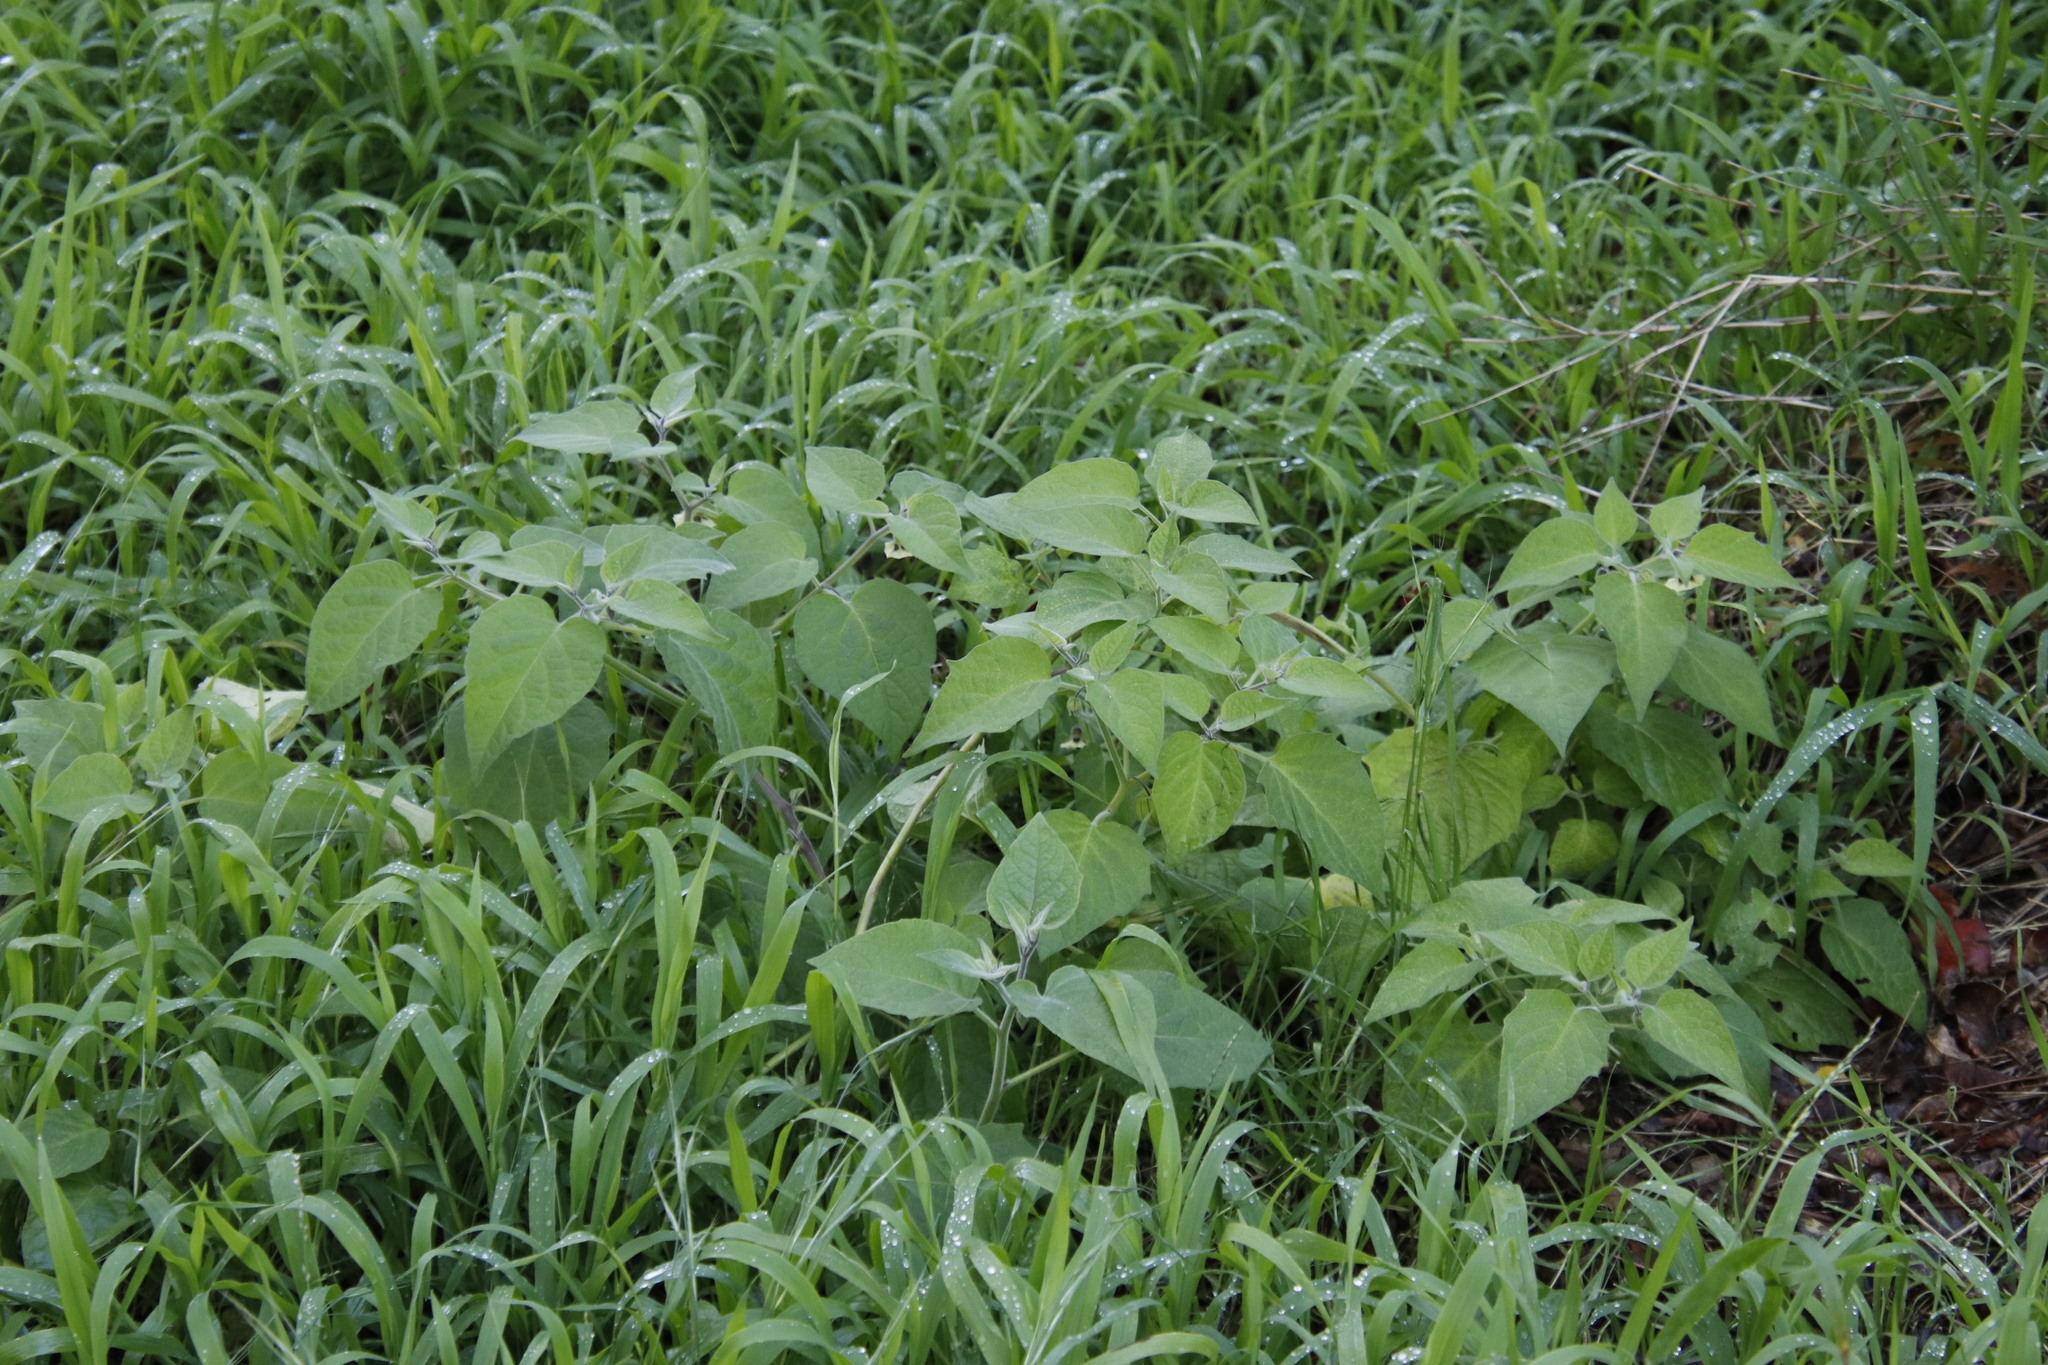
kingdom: Plantae
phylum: Tracheophyta
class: Magnoliopsida
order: Solanales
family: Solanaceae
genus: Physalis
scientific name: Physalis peruviana
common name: Cape-gooseberry
